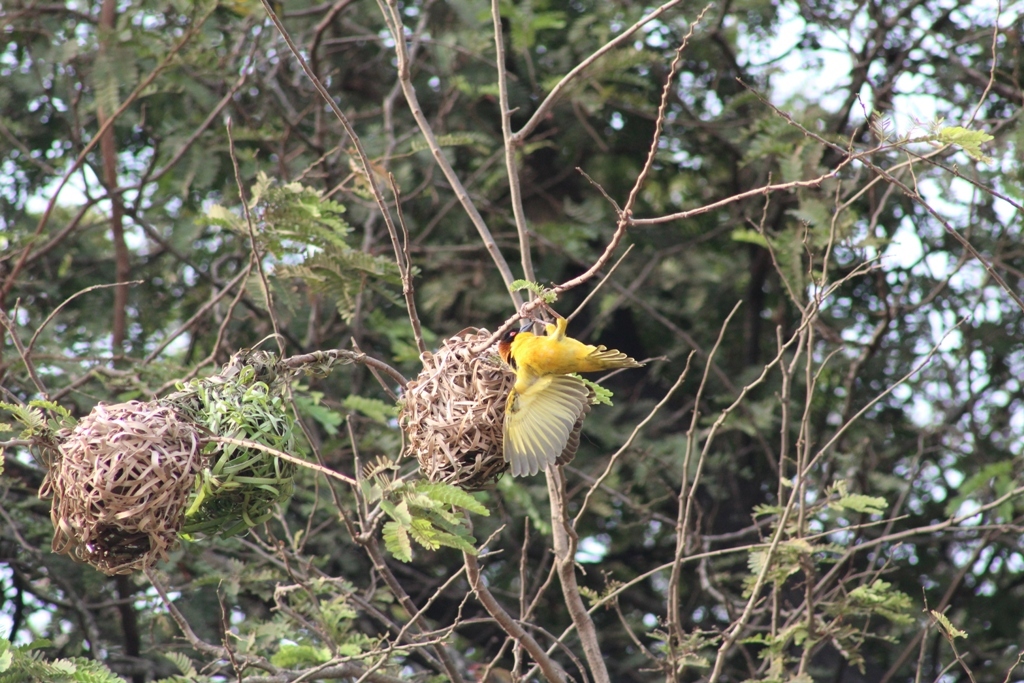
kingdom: Animalia
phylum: Chordata
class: Aves
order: Passeriformes
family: Ploceidae
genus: Ploceus
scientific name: Ploceus cucullatus
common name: Village weaver
